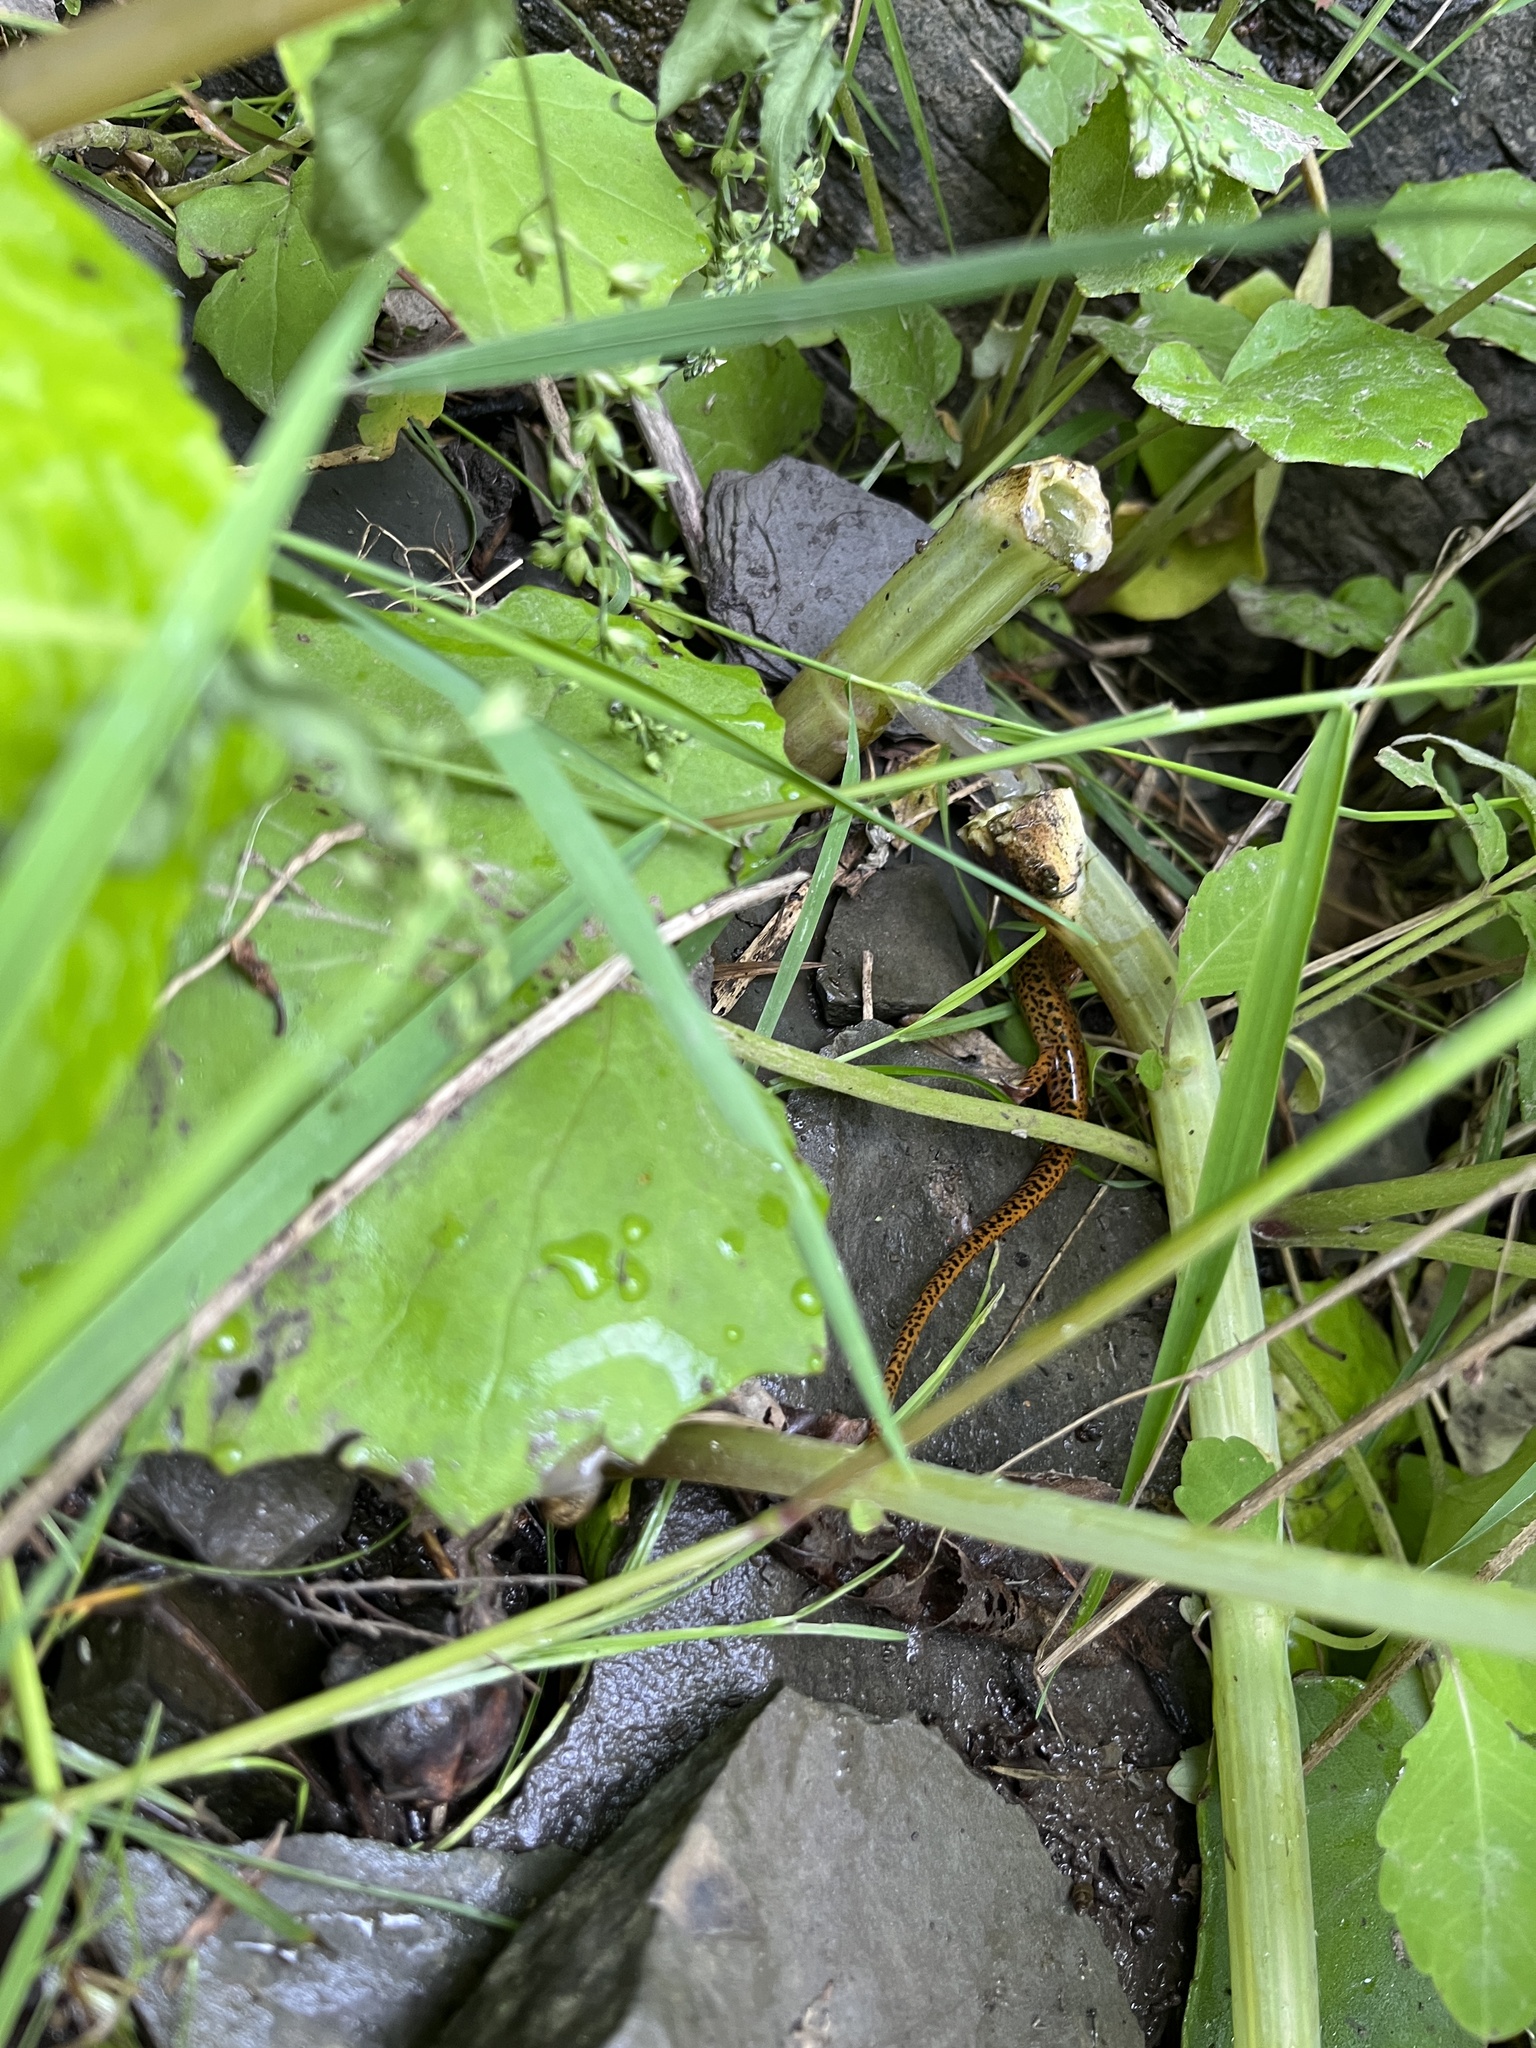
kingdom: Animalia
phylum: Chordata
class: Amphibia
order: Caudata
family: Plethodontidae
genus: Eurycea
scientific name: Eurycea longicauda
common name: Long-tailed salamander
